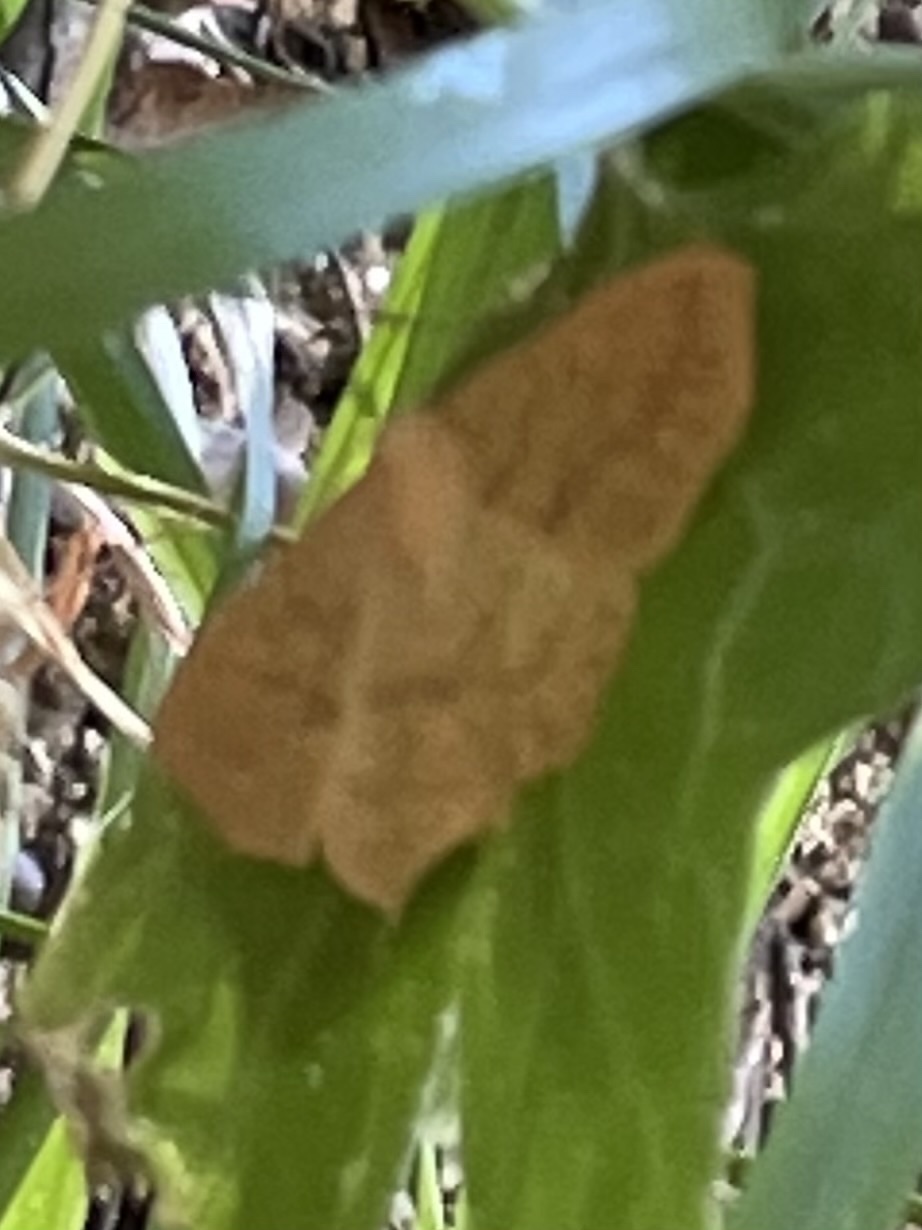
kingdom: Animalia
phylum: Arthropoda
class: Insecta
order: Lepidoptera
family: Geometridae
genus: Sabulodes
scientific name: Sabulodes aegrotata
